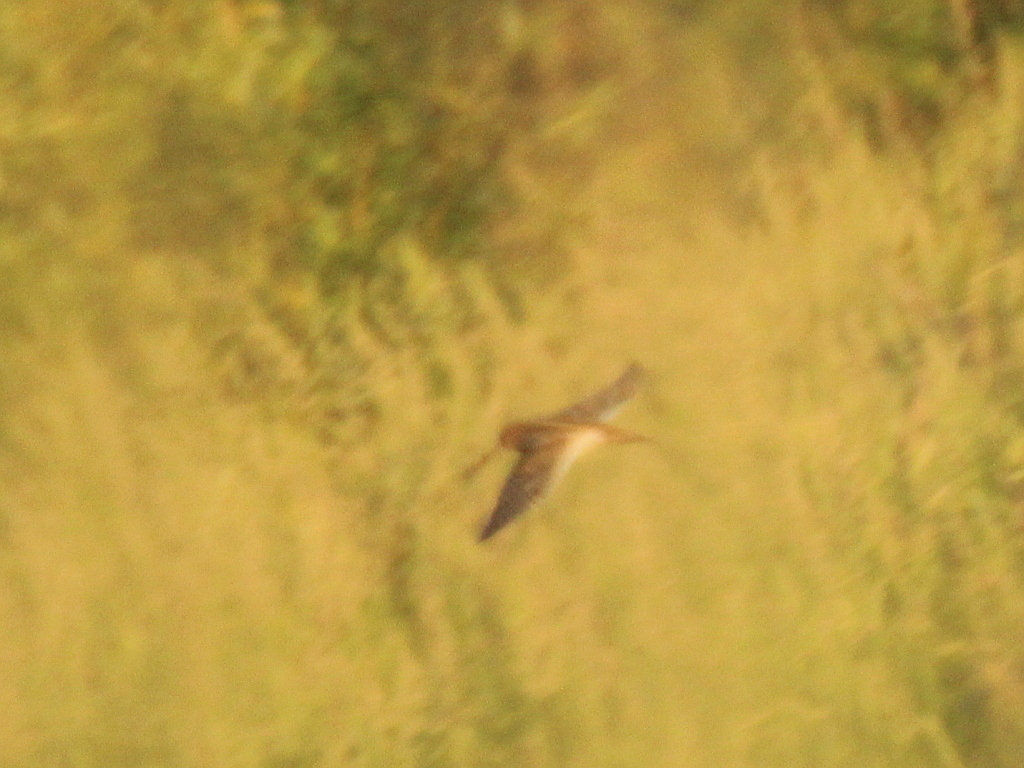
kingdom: Animalia
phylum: Chordata
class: Aves
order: Charadriiformes
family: Scolopacidae
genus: Gallinago
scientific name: Gallinago gallinago
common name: Common snipe
